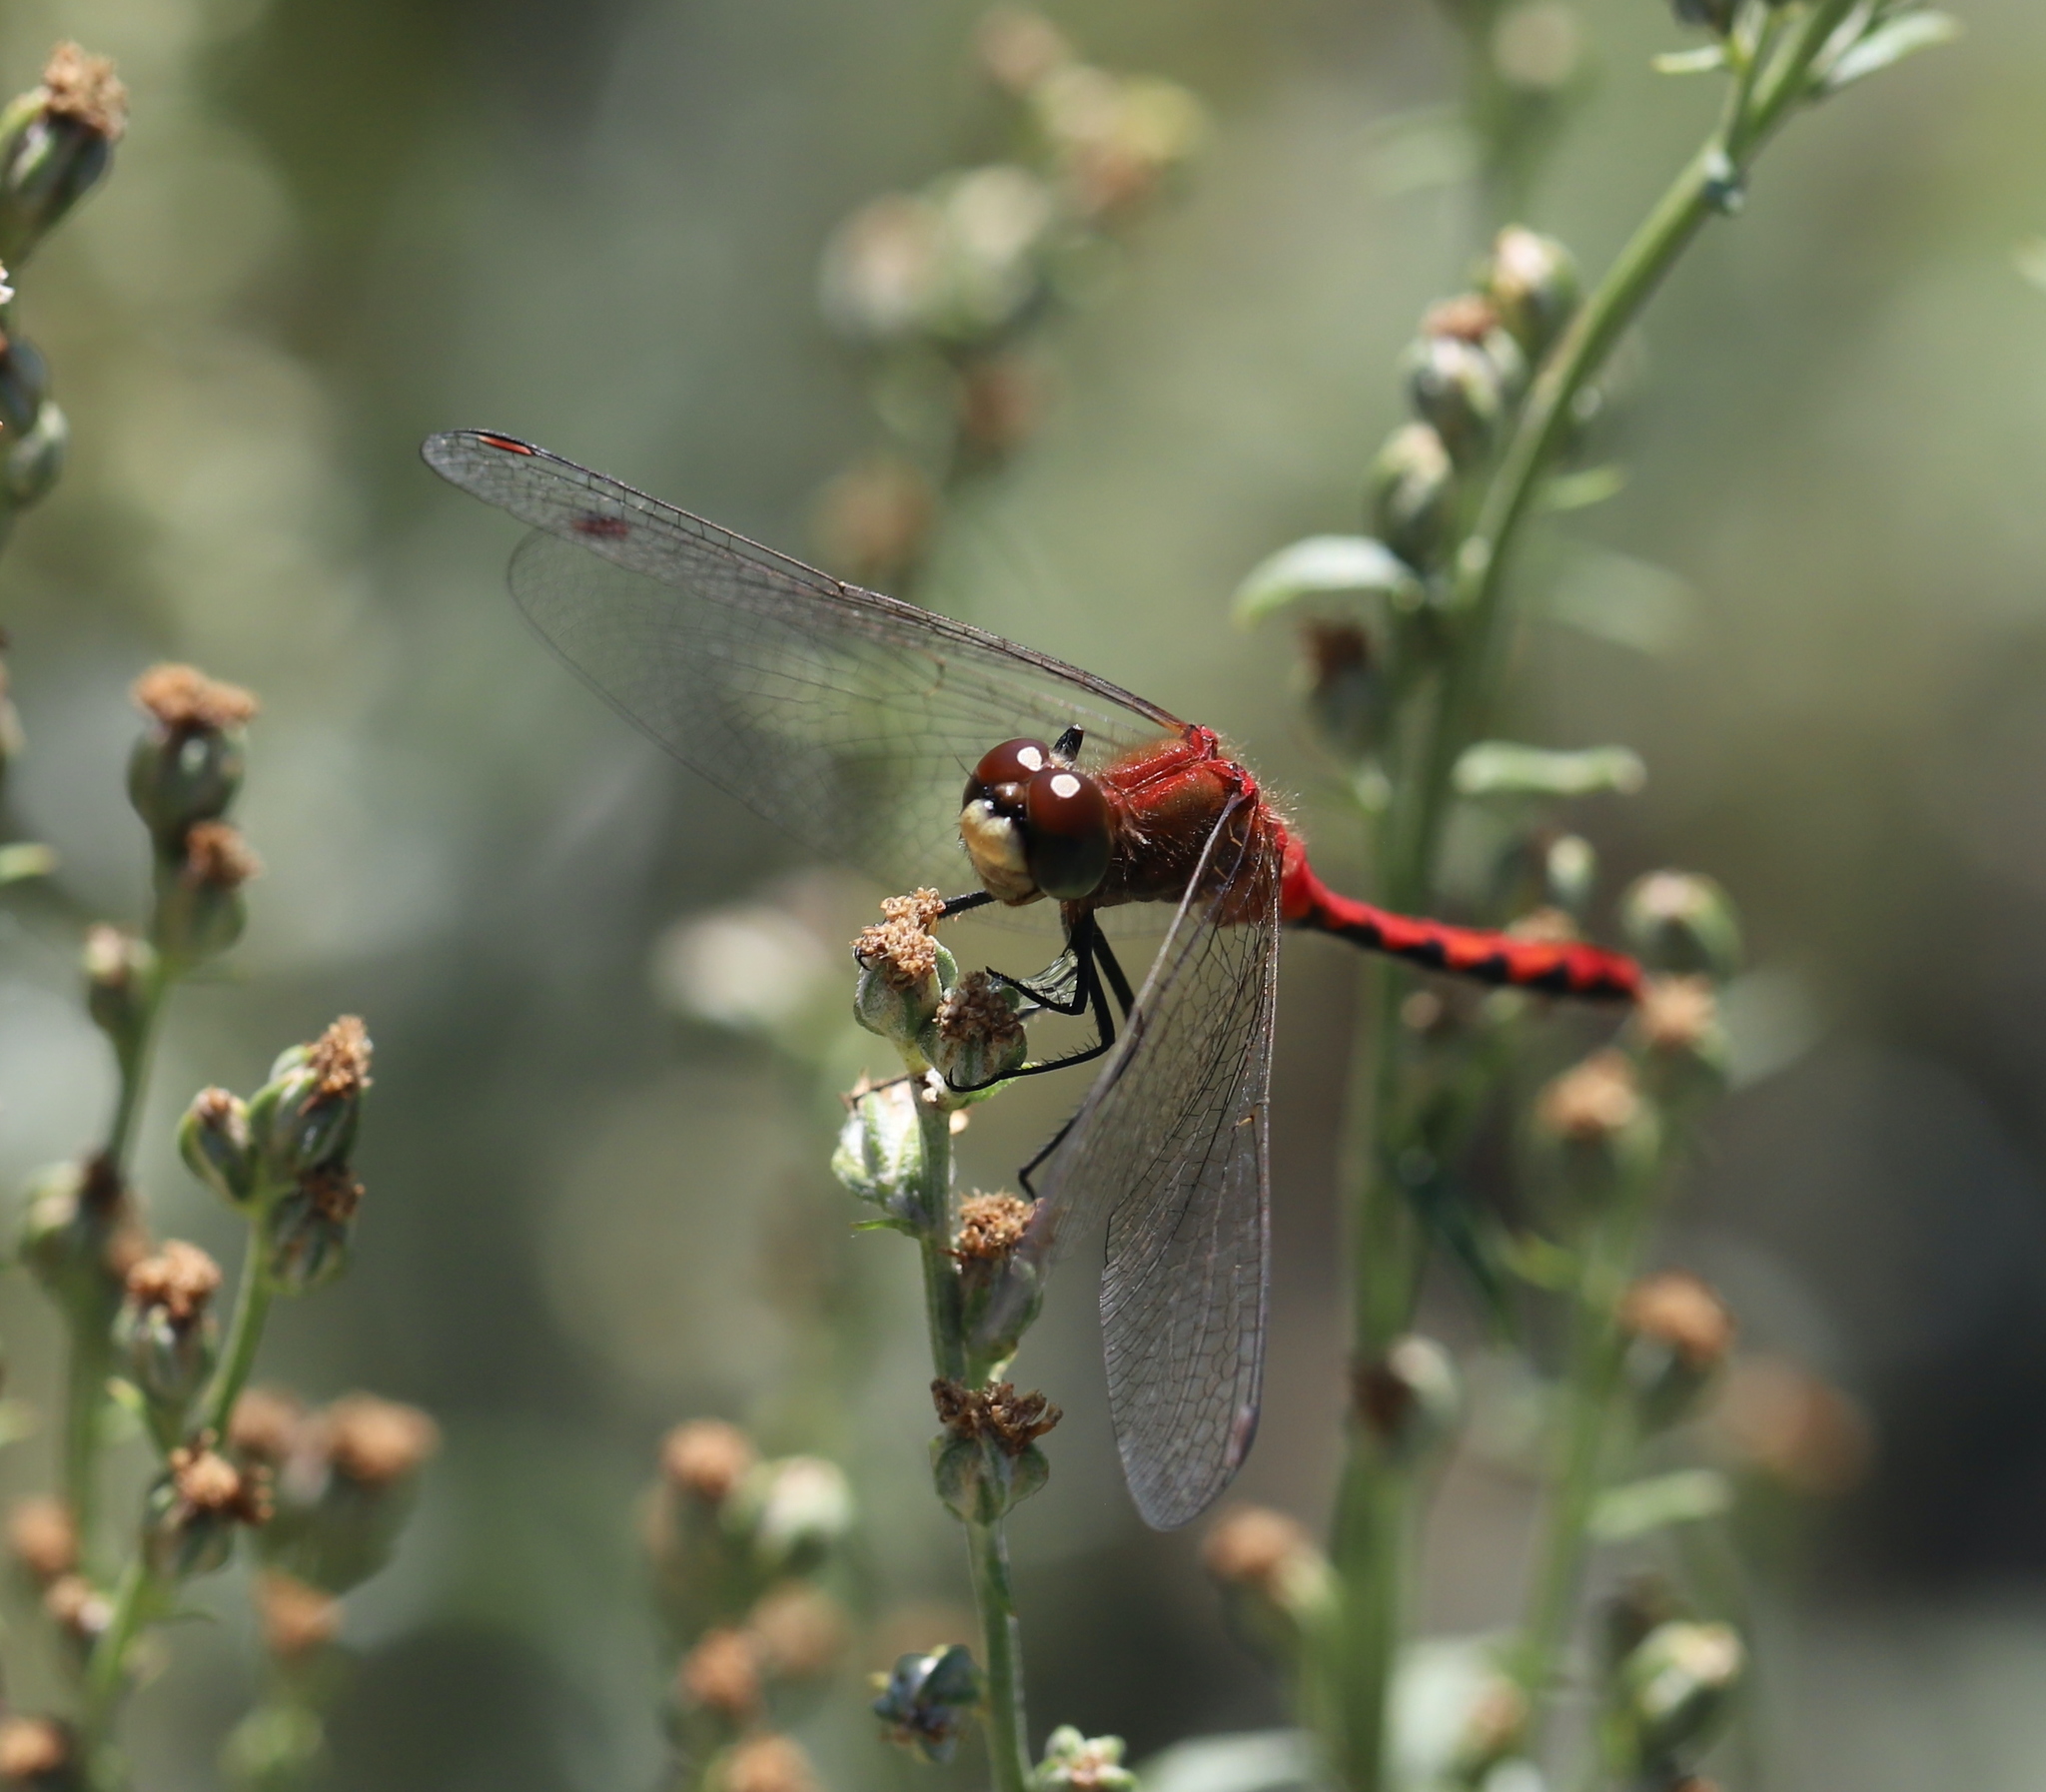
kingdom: Animalia
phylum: Arthropoda
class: Insecta
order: Odonata
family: Libellulidae
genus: Sympetrum
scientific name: Sympetrum obtrusum
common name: White-faced meadowhawk
